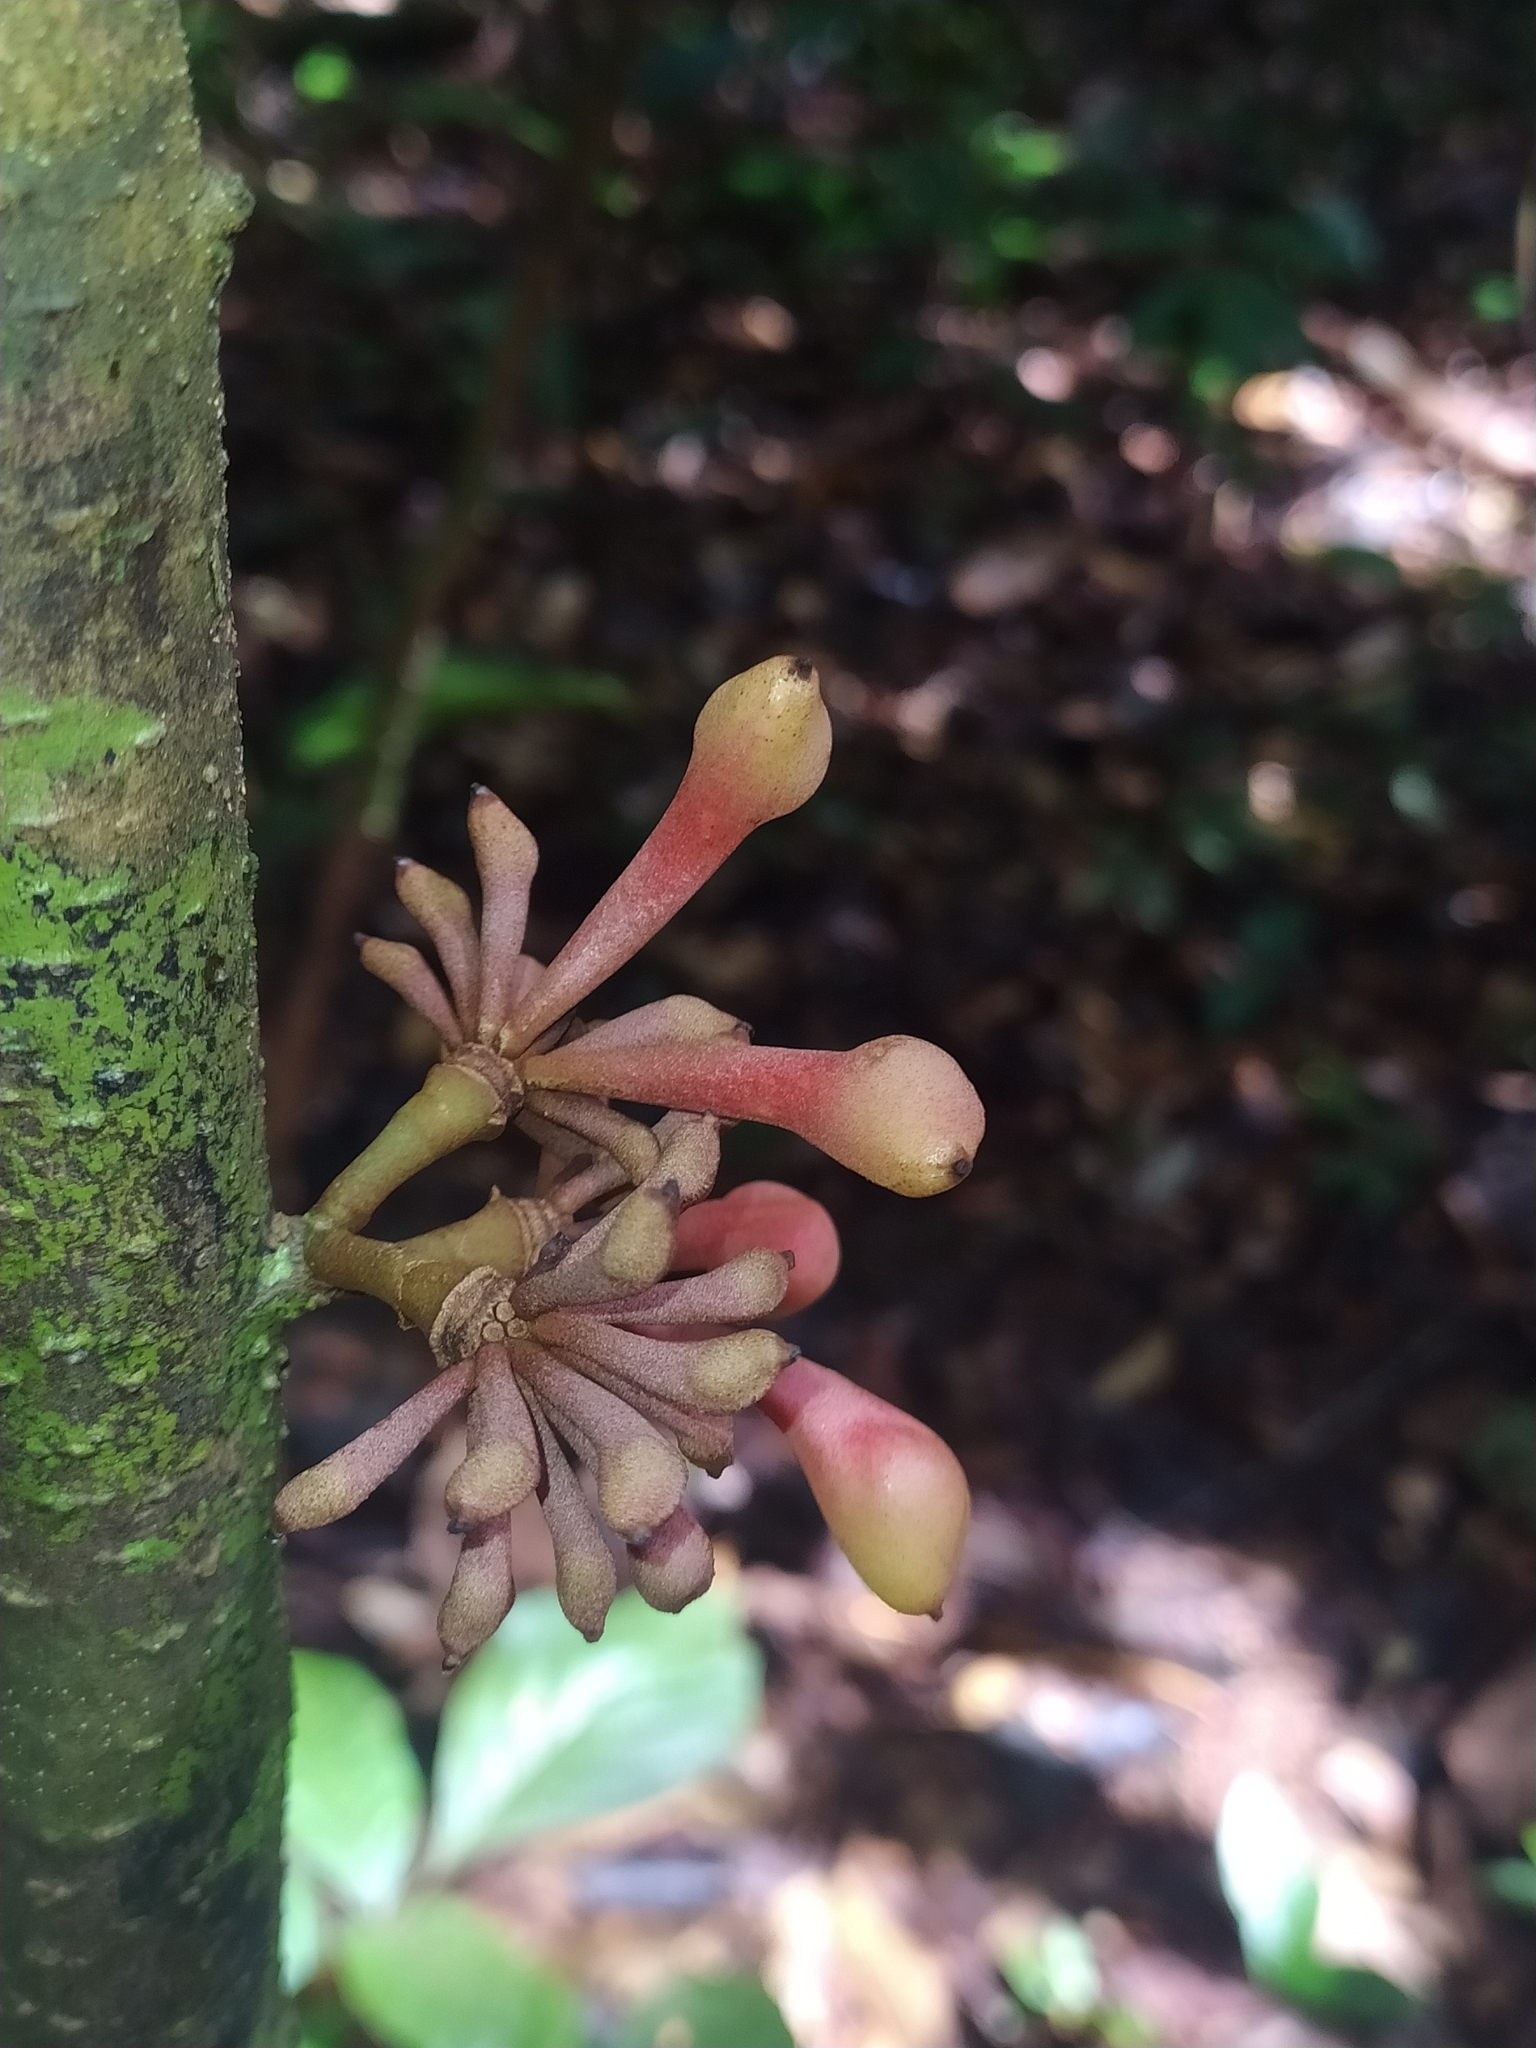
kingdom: Plantae
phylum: Tracheophyta
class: Magnoliopsida
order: Magnoliales
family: Annonaceae
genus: Anaxagorea
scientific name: Anaxagorea
